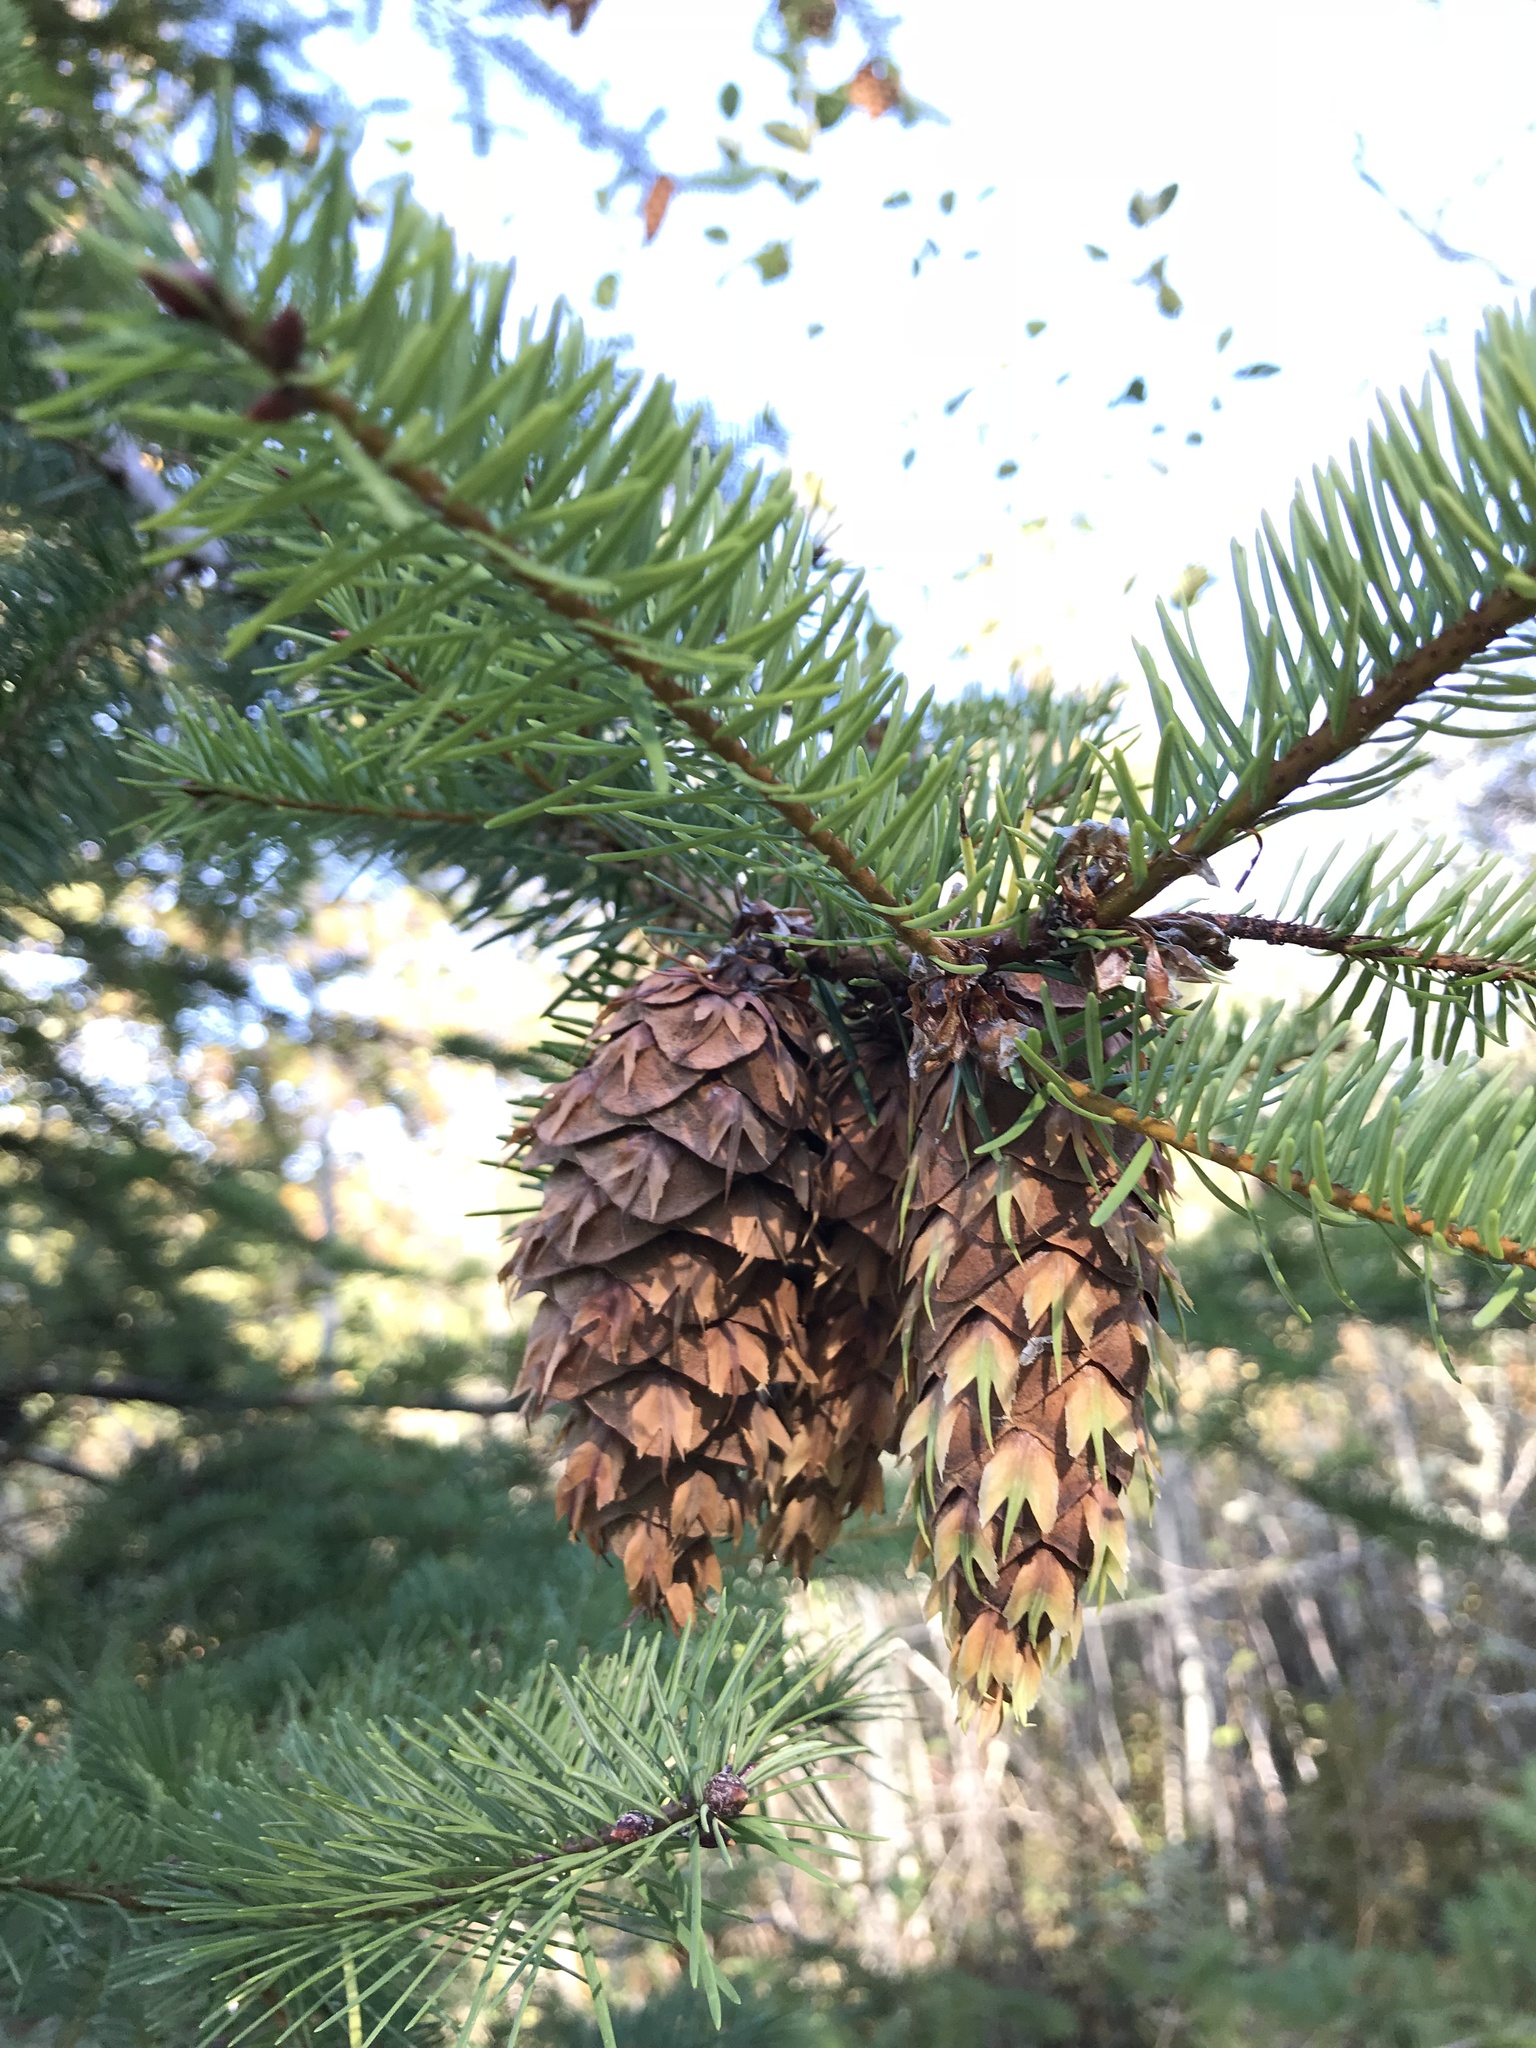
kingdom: Plantae
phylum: Tracheophyta
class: Pinopsida
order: Pinales
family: Pinaceae
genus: Pseudotsuga
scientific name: Pseudotsuga menziesii
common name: Douglas fir
